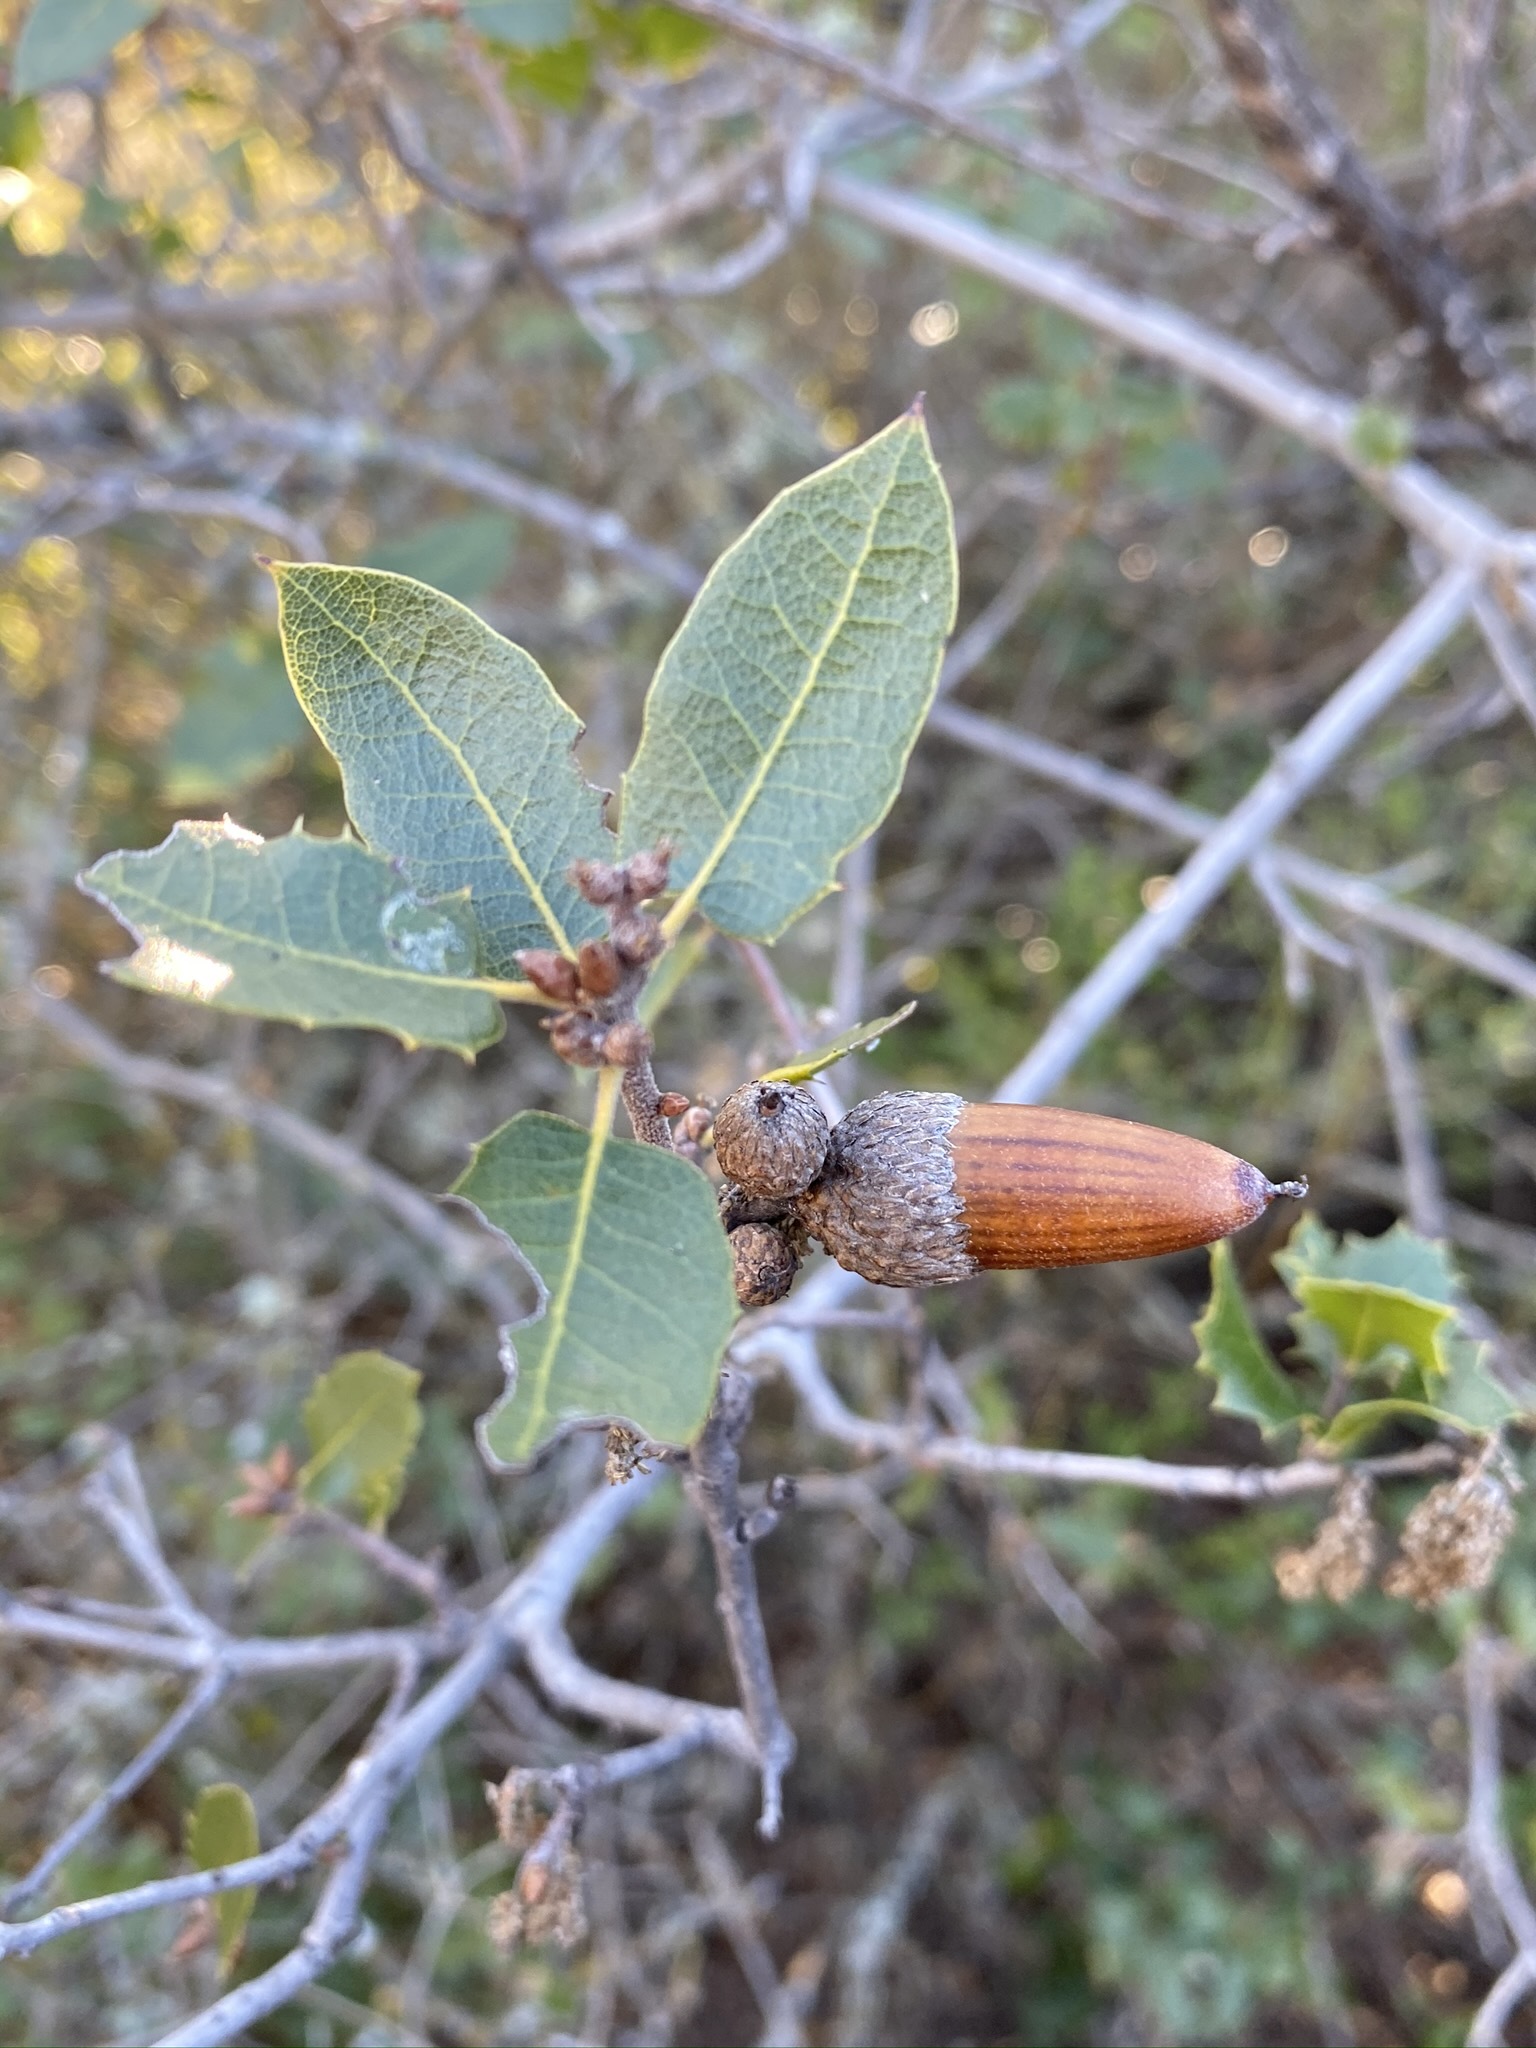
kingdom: Plantae
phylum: Tracheophyta
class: Magnoliopsida
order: Fagales
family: Fagaceae
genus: Quercus
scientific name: Quercus wislizeni
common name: Interior live oak
